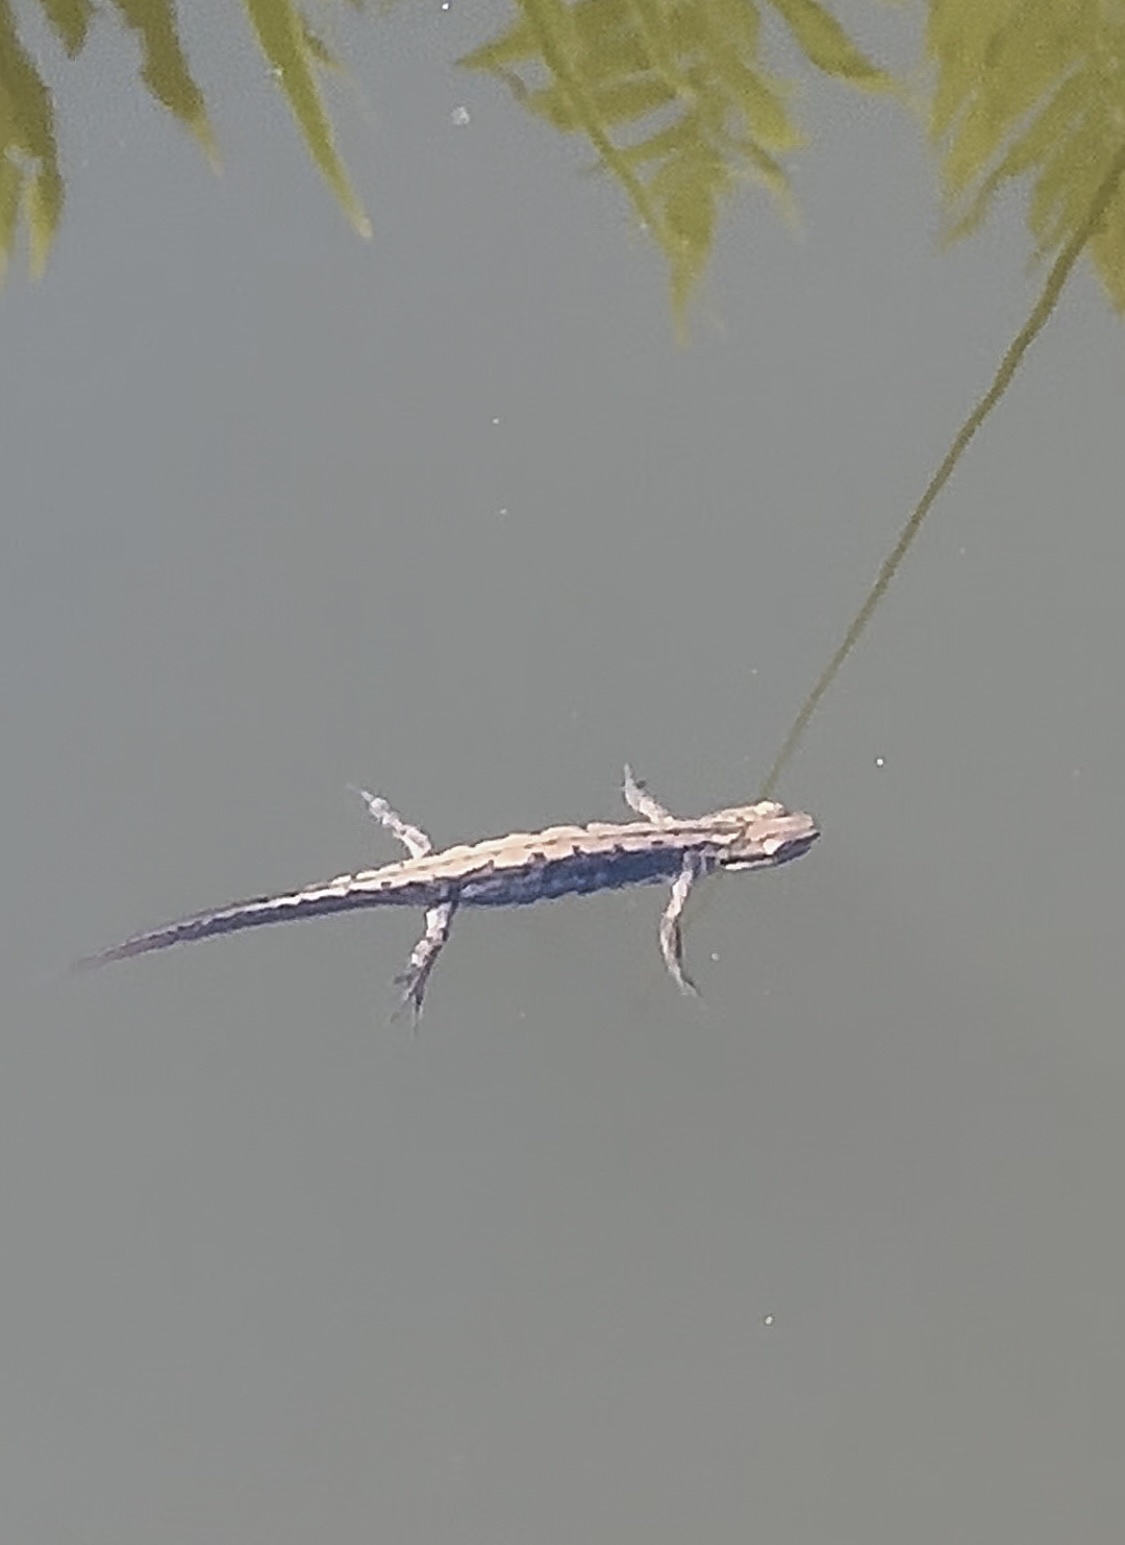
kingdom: Animalia
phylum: Chordata
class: Amphibia
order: Caudata
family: Salamandridae
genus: Lissotriton
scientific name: Lissotriton vulgaris
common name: Smooth newt
